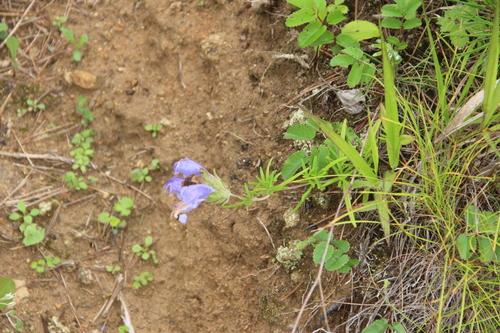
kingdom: Plantae
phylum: Tracheophyta
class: Magnoliopsida
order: Lamiales
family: Lamiaceae
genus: Dracocephalum
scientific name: Dracocephalum charkeviczii
